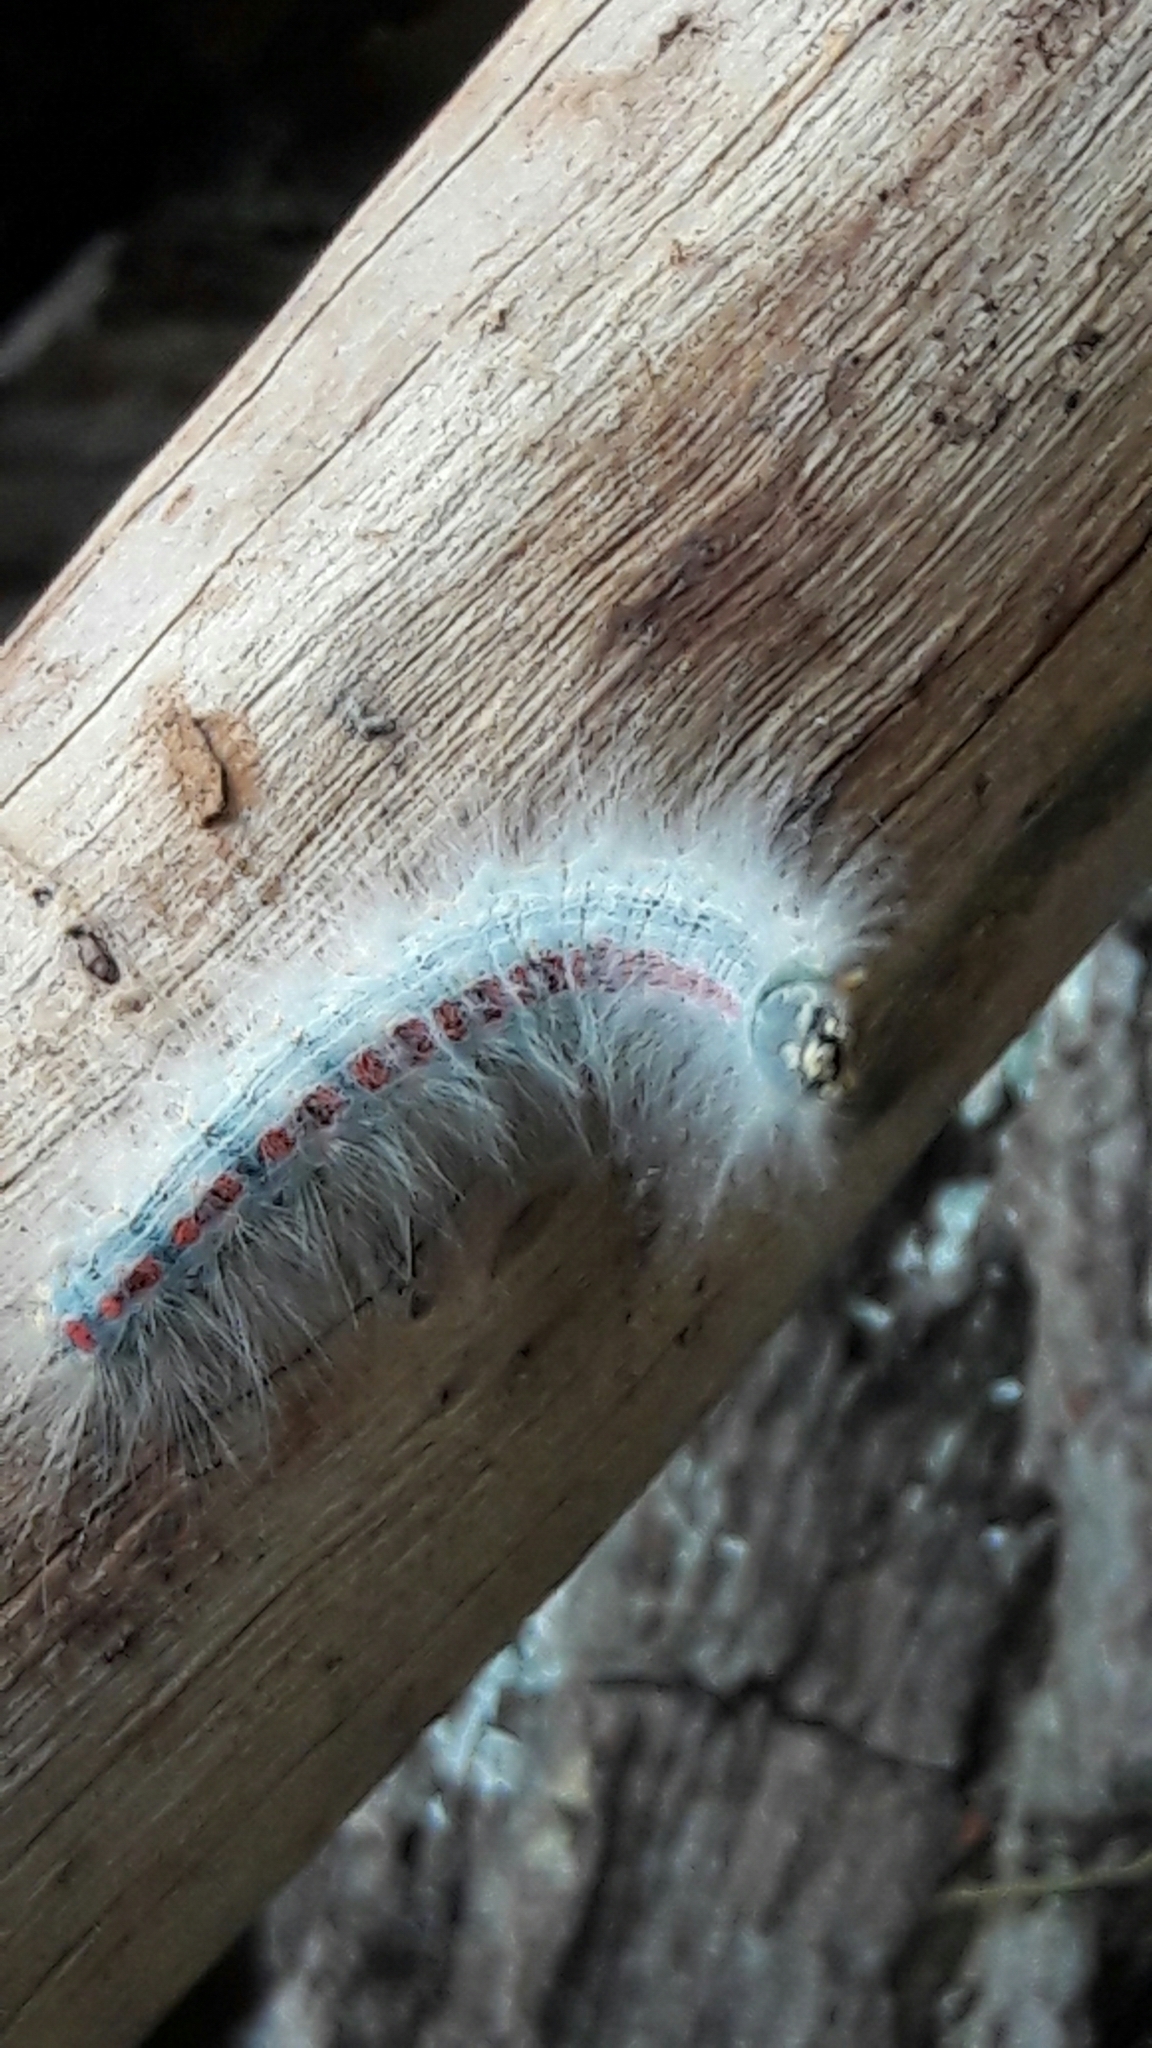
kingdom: Animalia
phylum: Arthropoda
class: Insecta
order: Lepidoptera
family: Lasiocampidae
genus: Euglyphis
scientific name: Euglyphis aenegia
